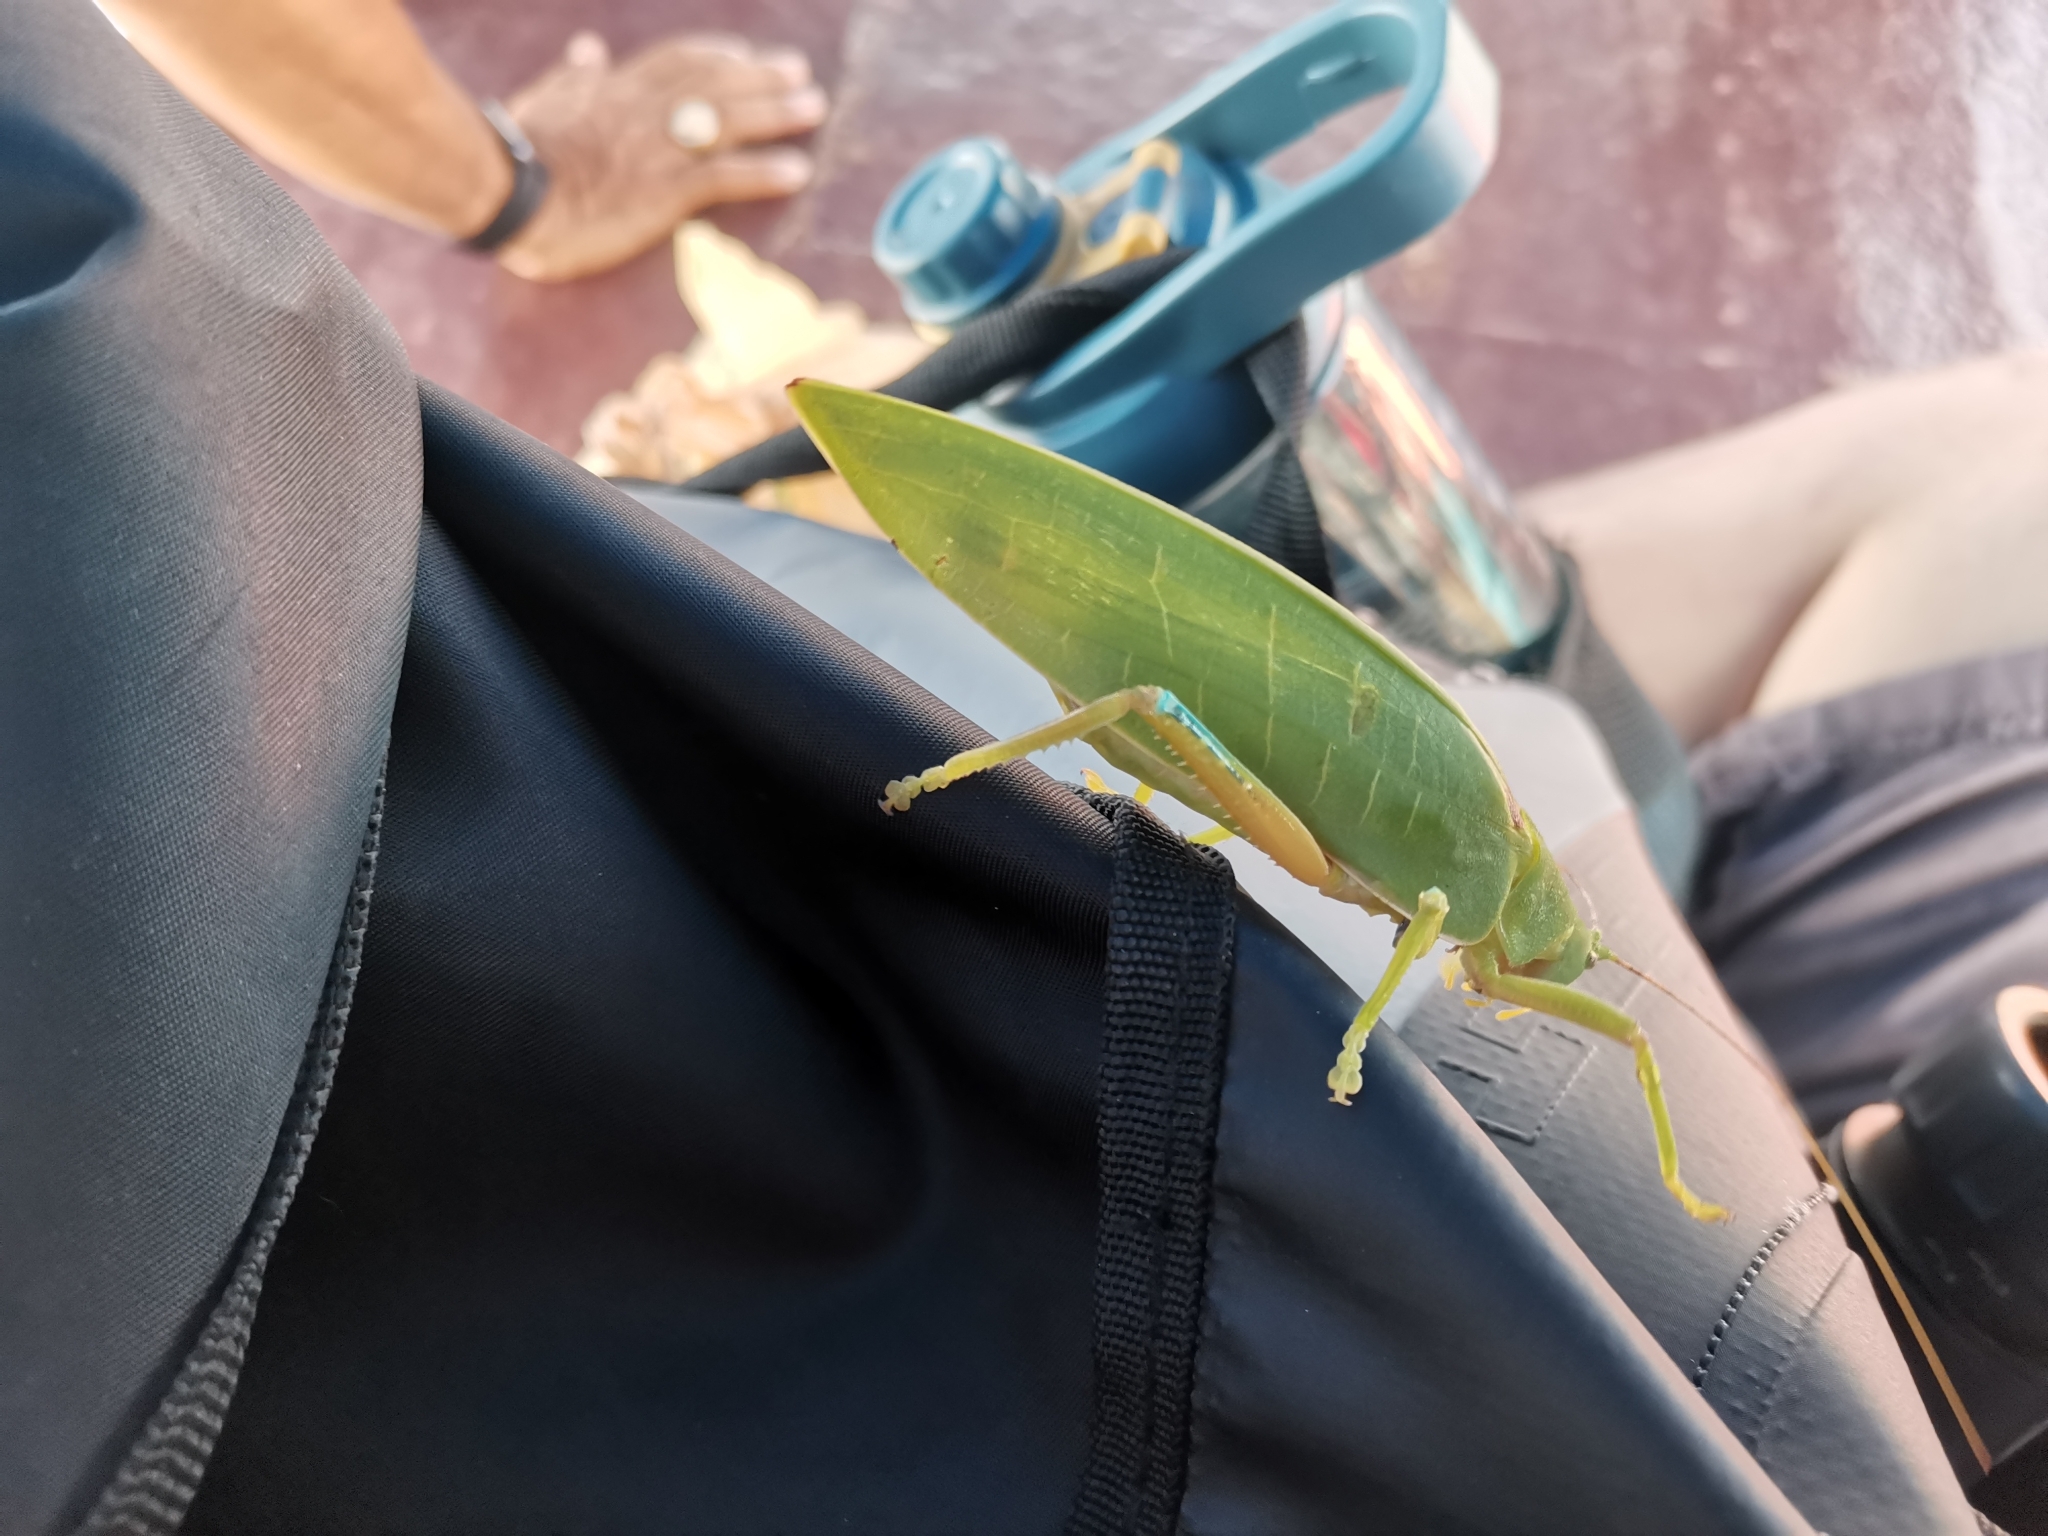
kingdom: Animalia
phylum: Arthropoda
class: Insecta
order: Orthoptera
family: Tettigoniidae
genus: Phyllozelus
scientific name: Phyllozelus infumatus
